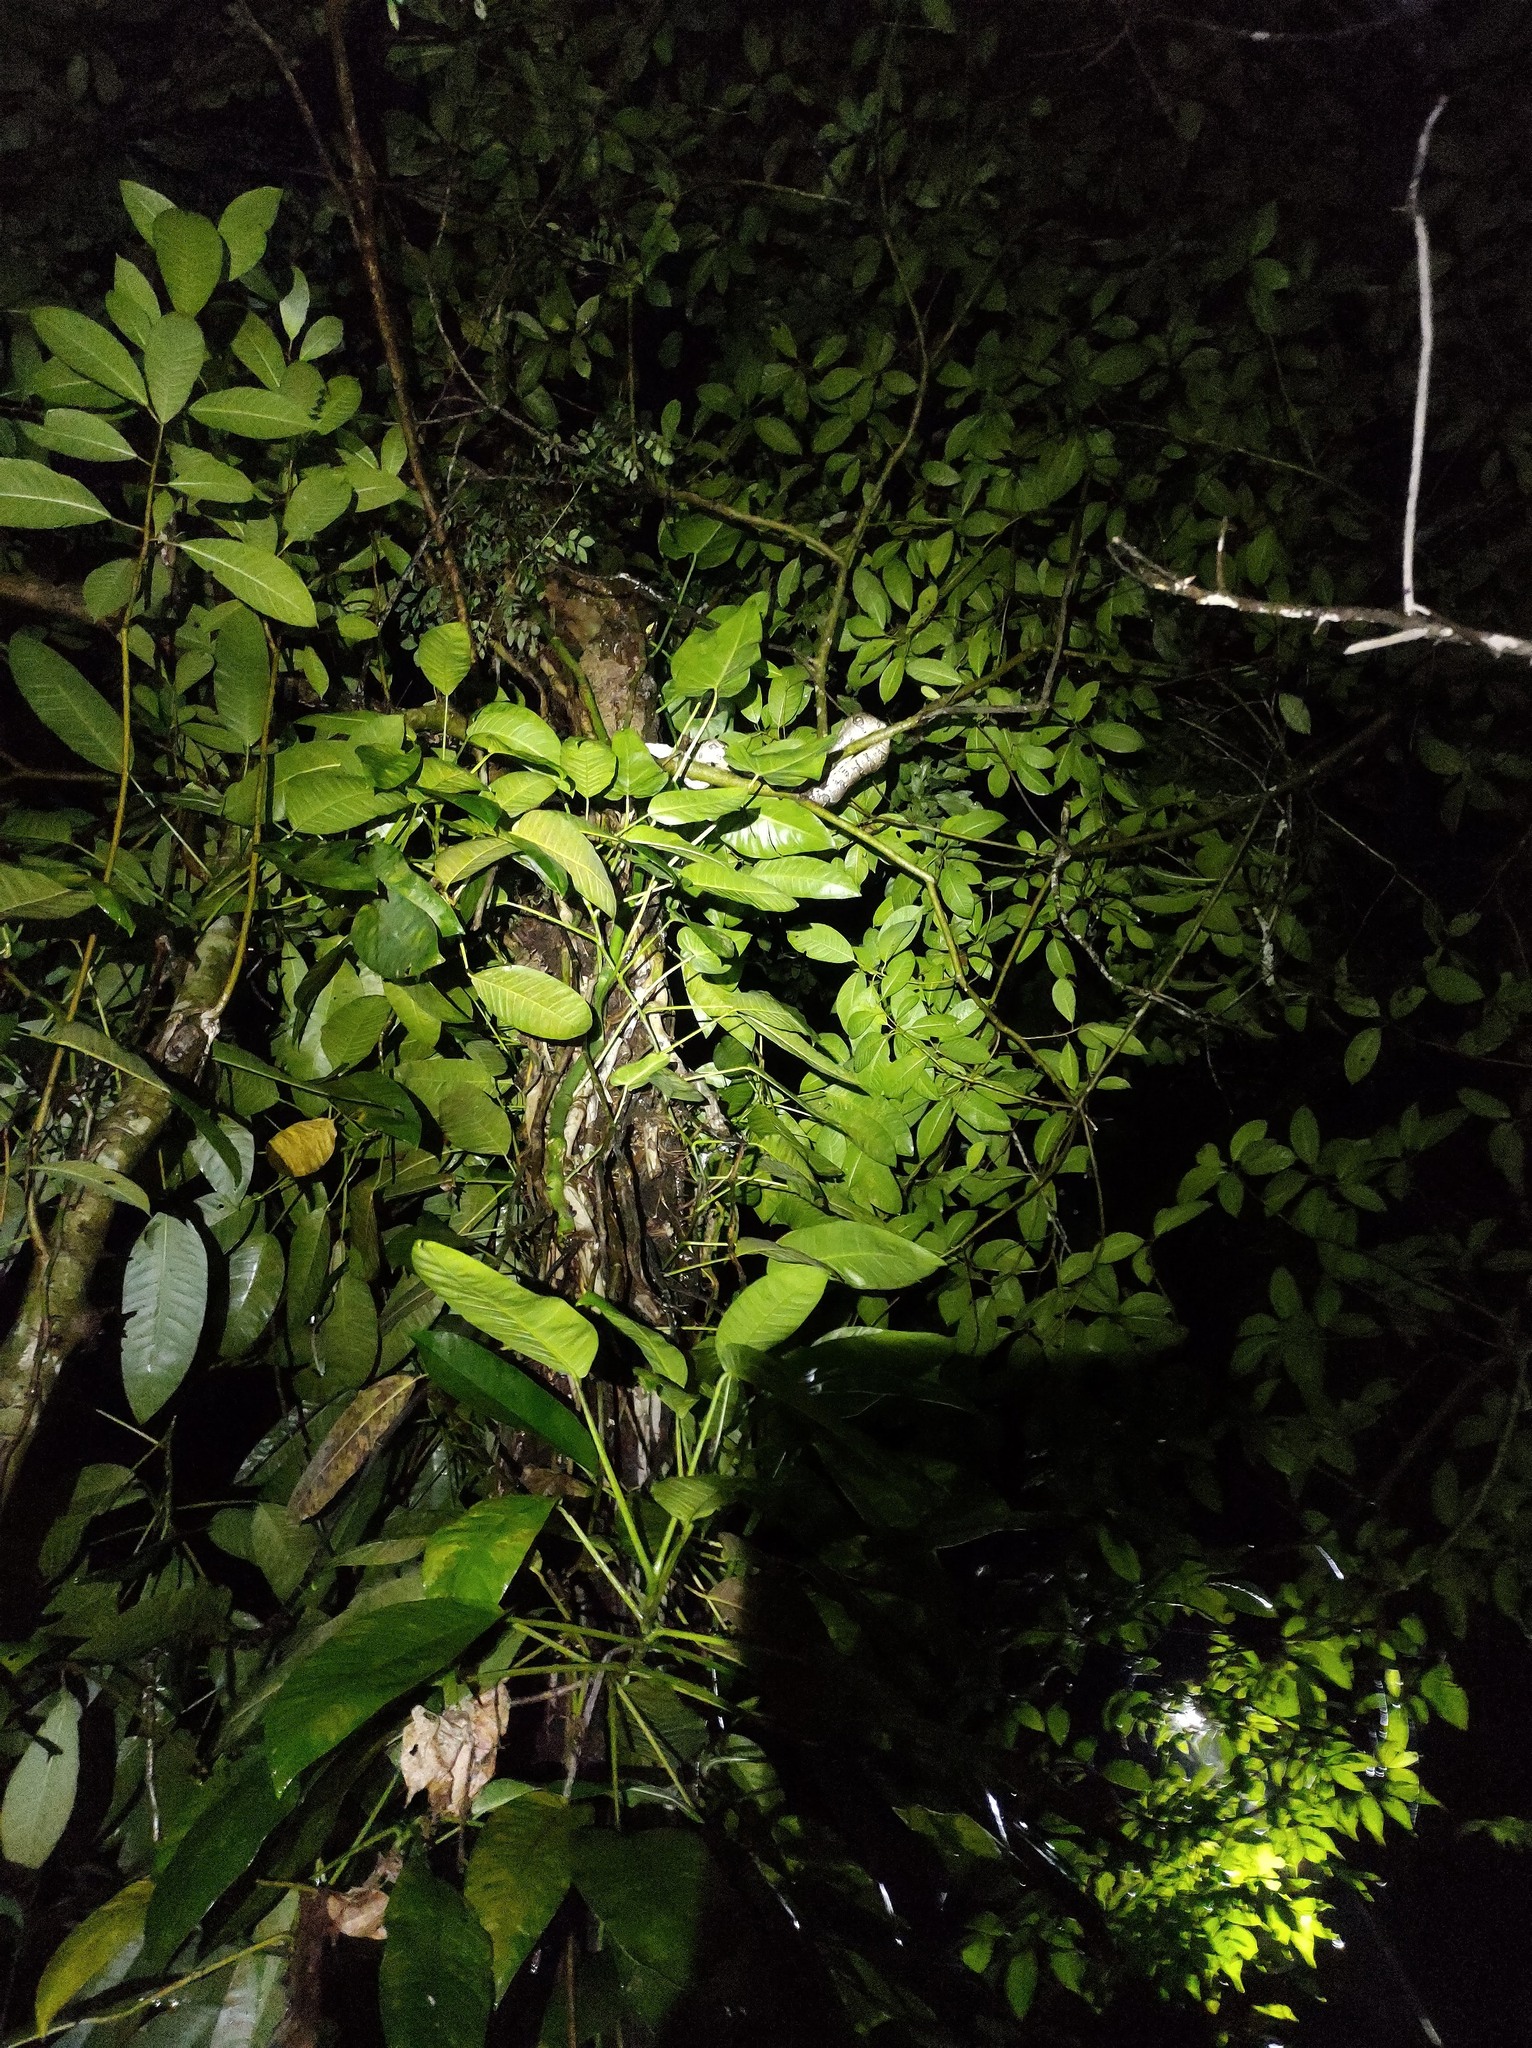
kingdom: Animalia
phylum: Chordata
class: Squamata
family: Boidae
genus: Boa
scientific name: Boa
